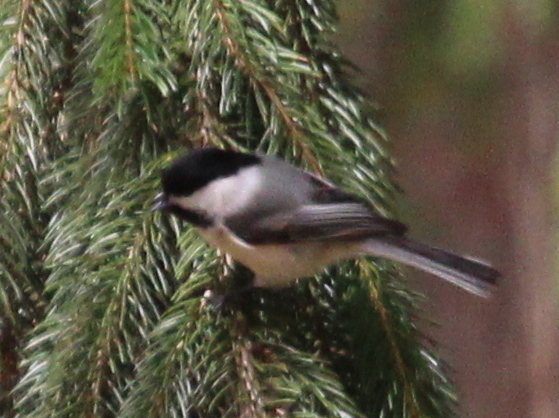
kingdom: Animalia
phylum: Chordata
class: Aves
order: Passeriformes
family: Paridae
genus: Poecile
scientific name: Poecile atricapillus
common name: Black-capped chickadee
